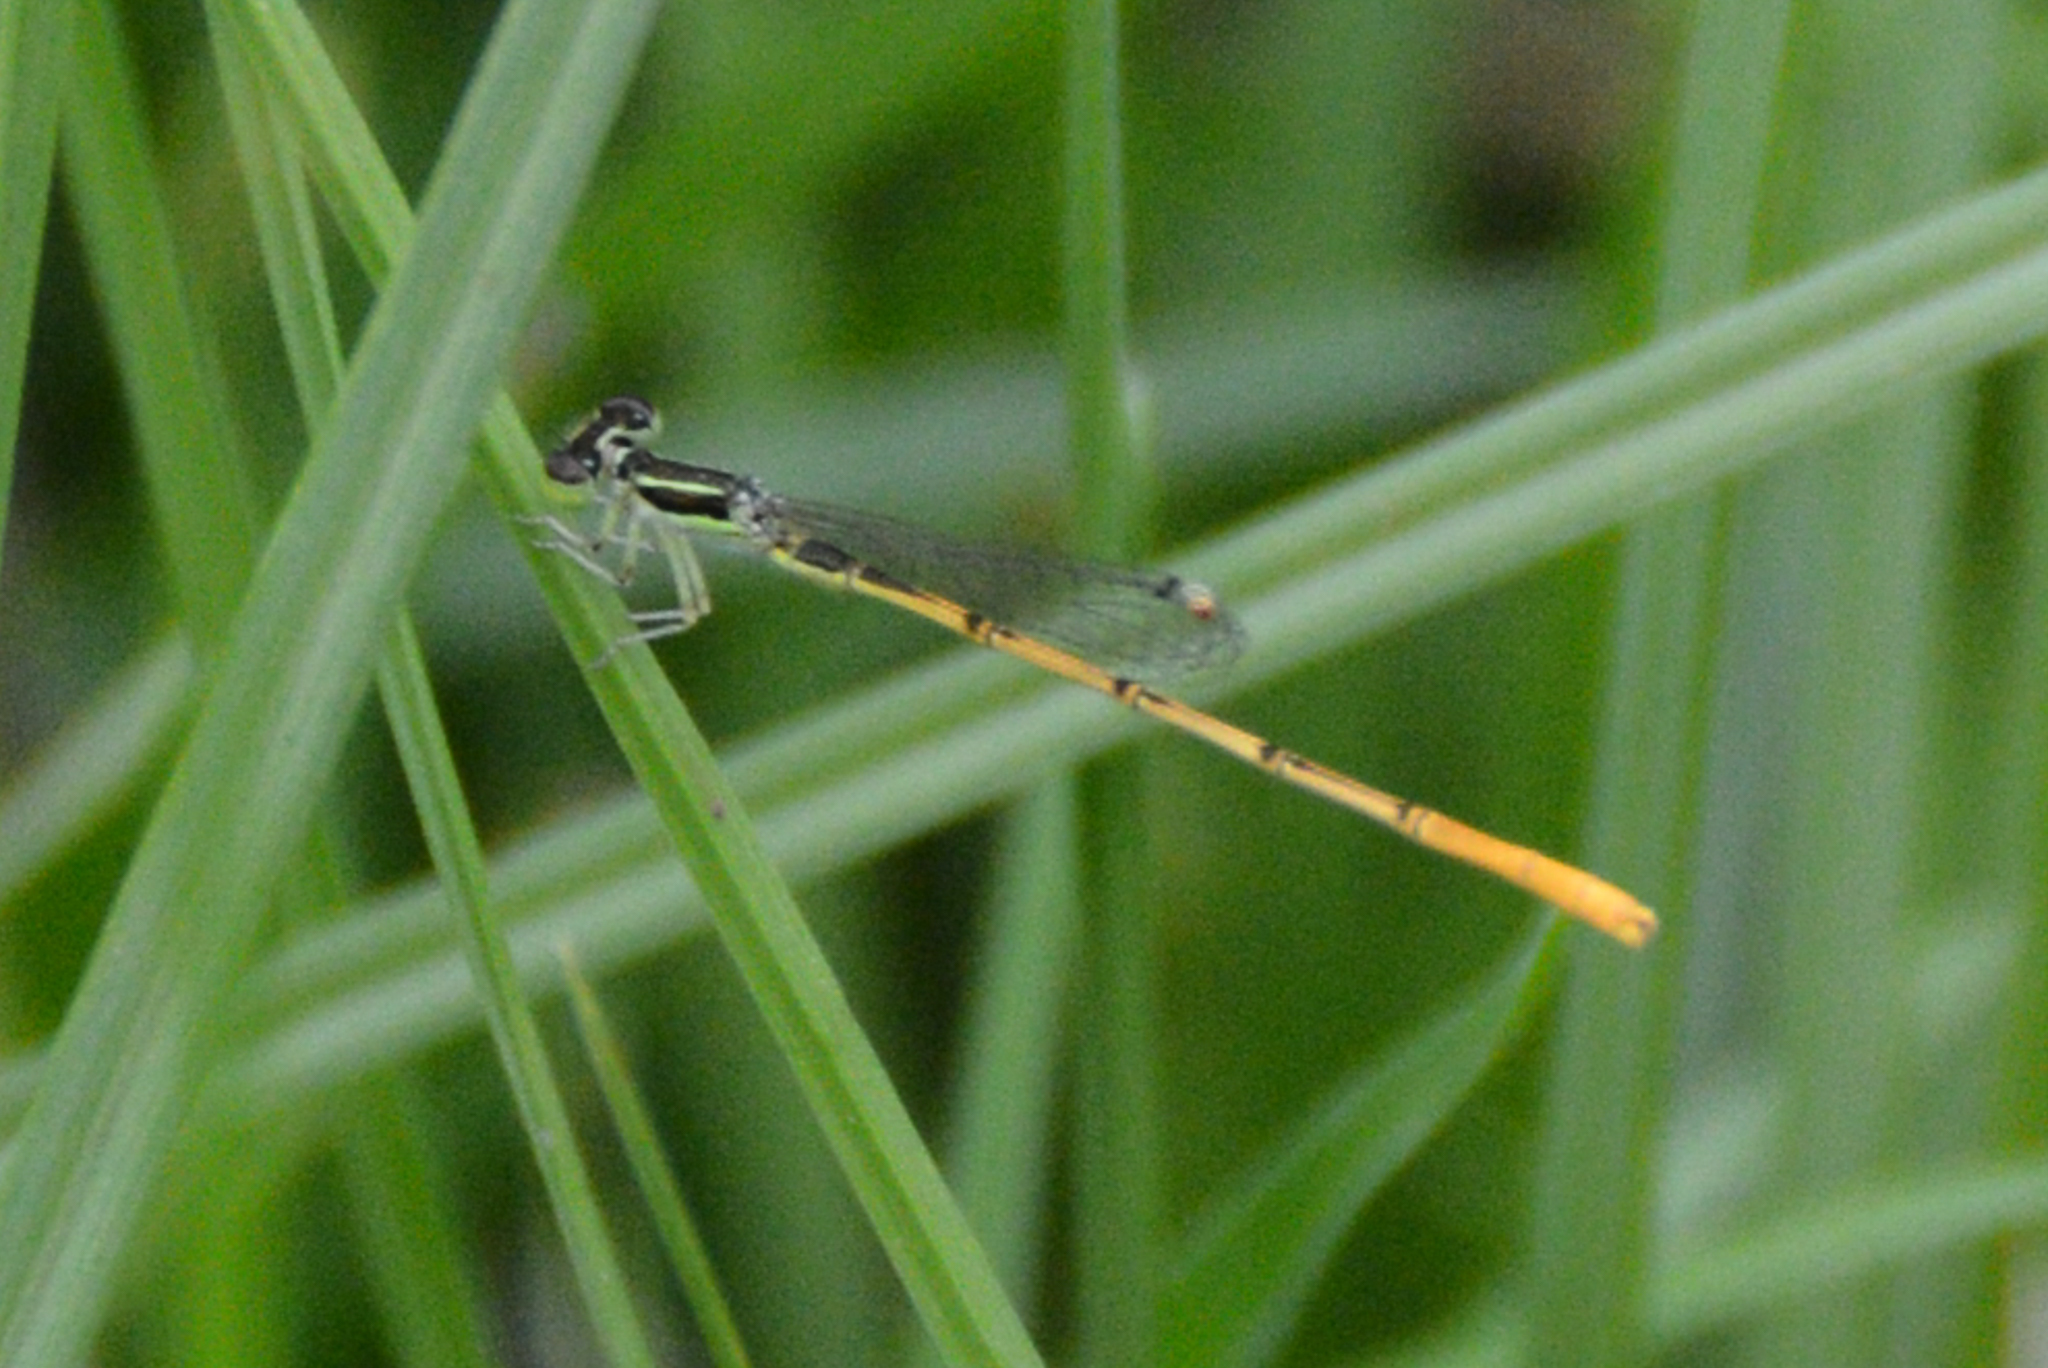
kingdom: Animalia
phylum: Arthropoda
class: Insecta
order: Odonata
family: Coenagrionidae
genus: Ischnura
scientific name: Ischnura hastata
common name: Citrine forktail
